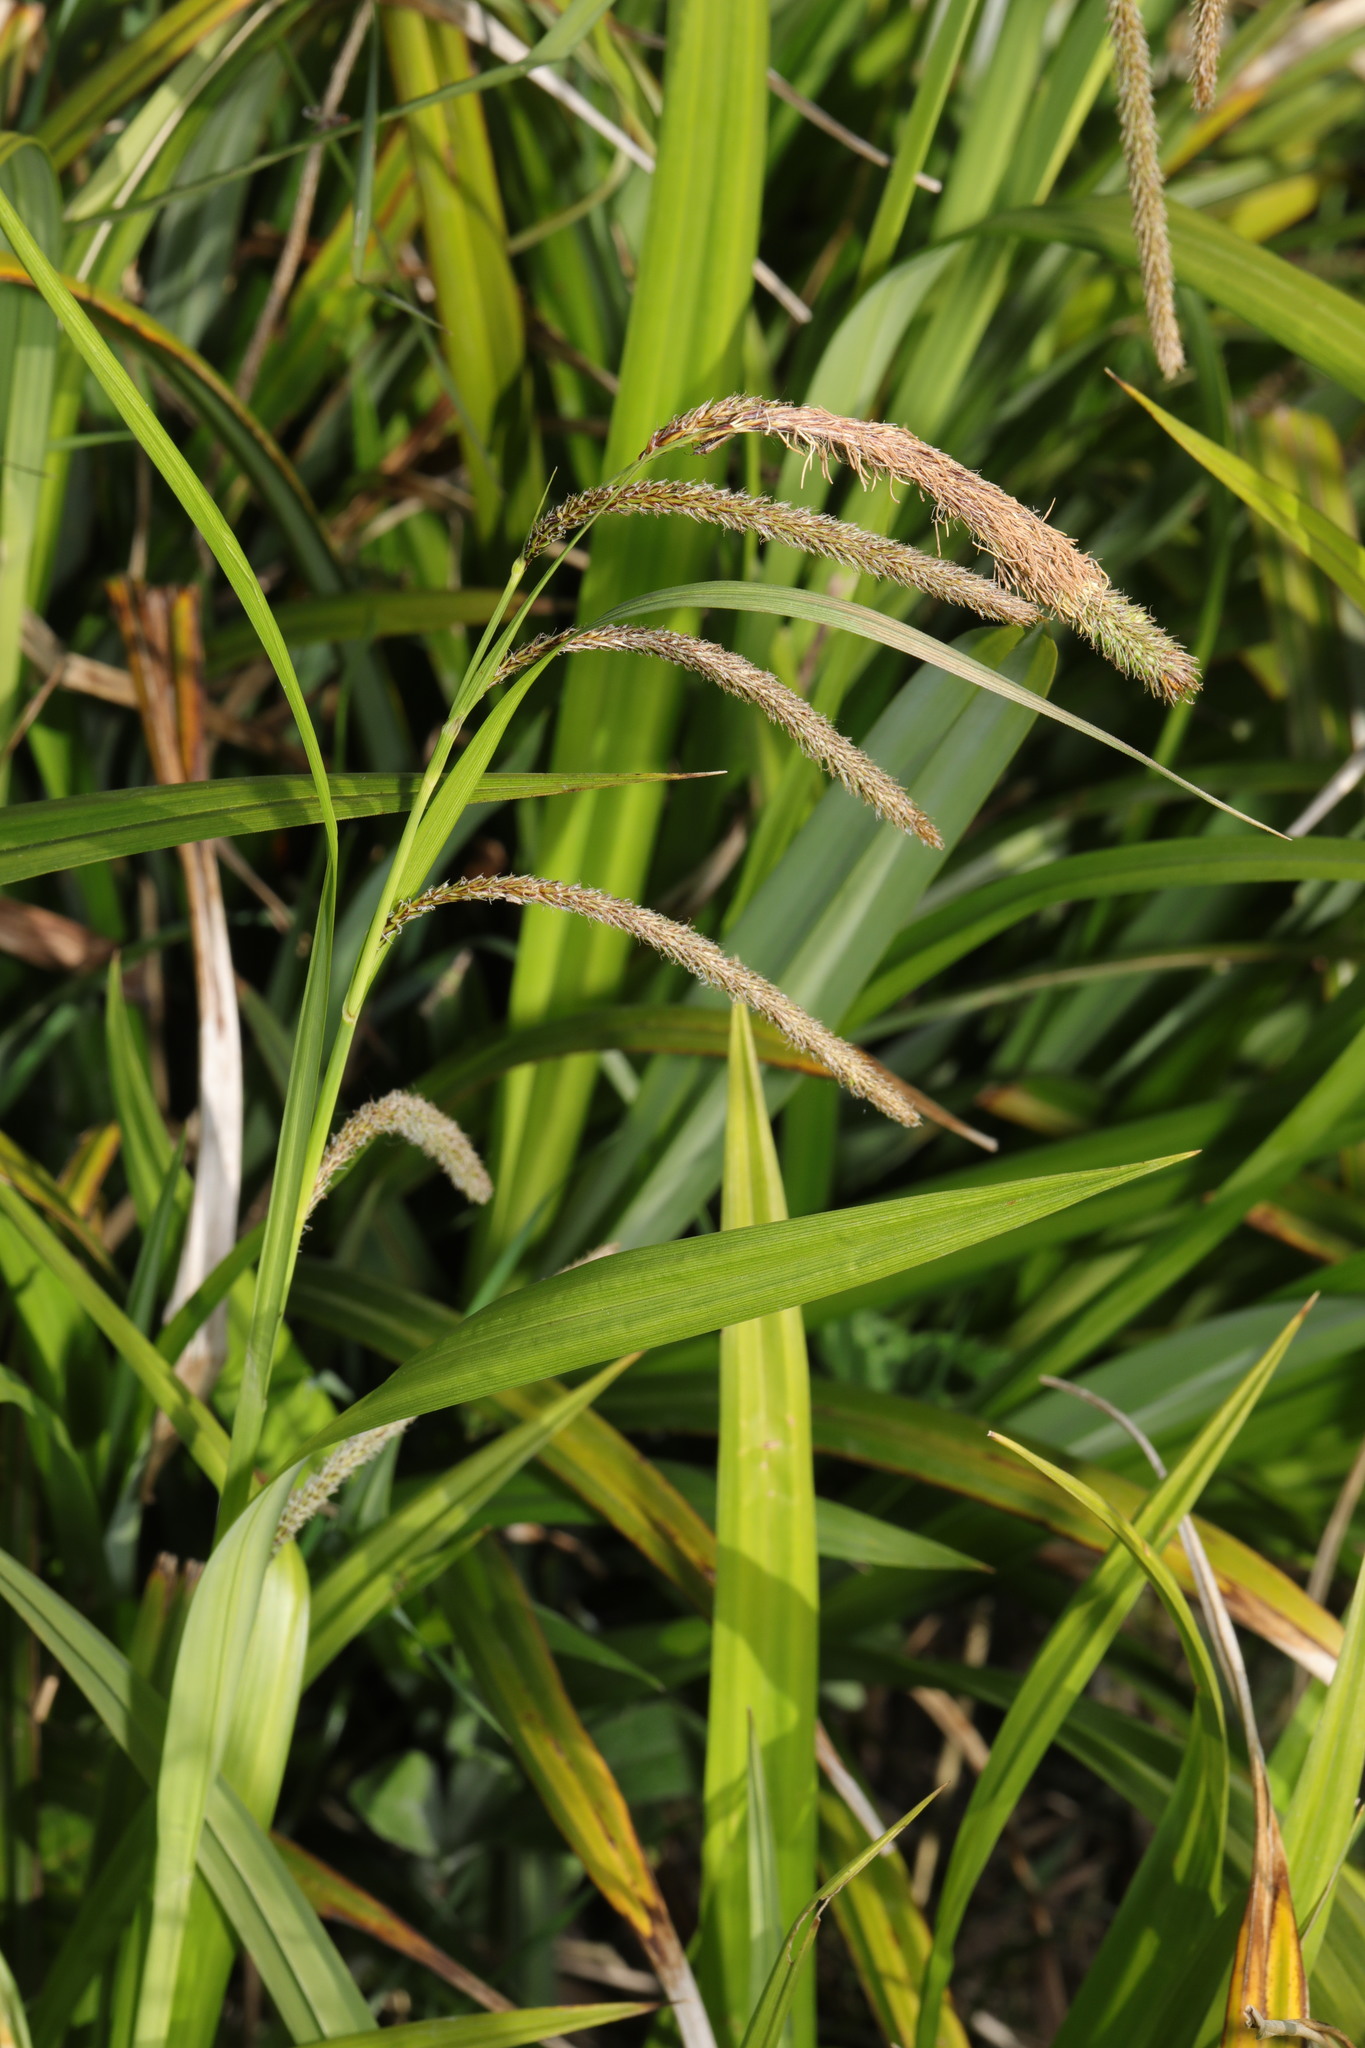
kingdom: Plantae
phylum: Tracheophyta
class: Liliopsida
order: Poales
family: Cyperaceae
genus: Carex
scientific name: Carex pendula
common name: Pendulous sedge
